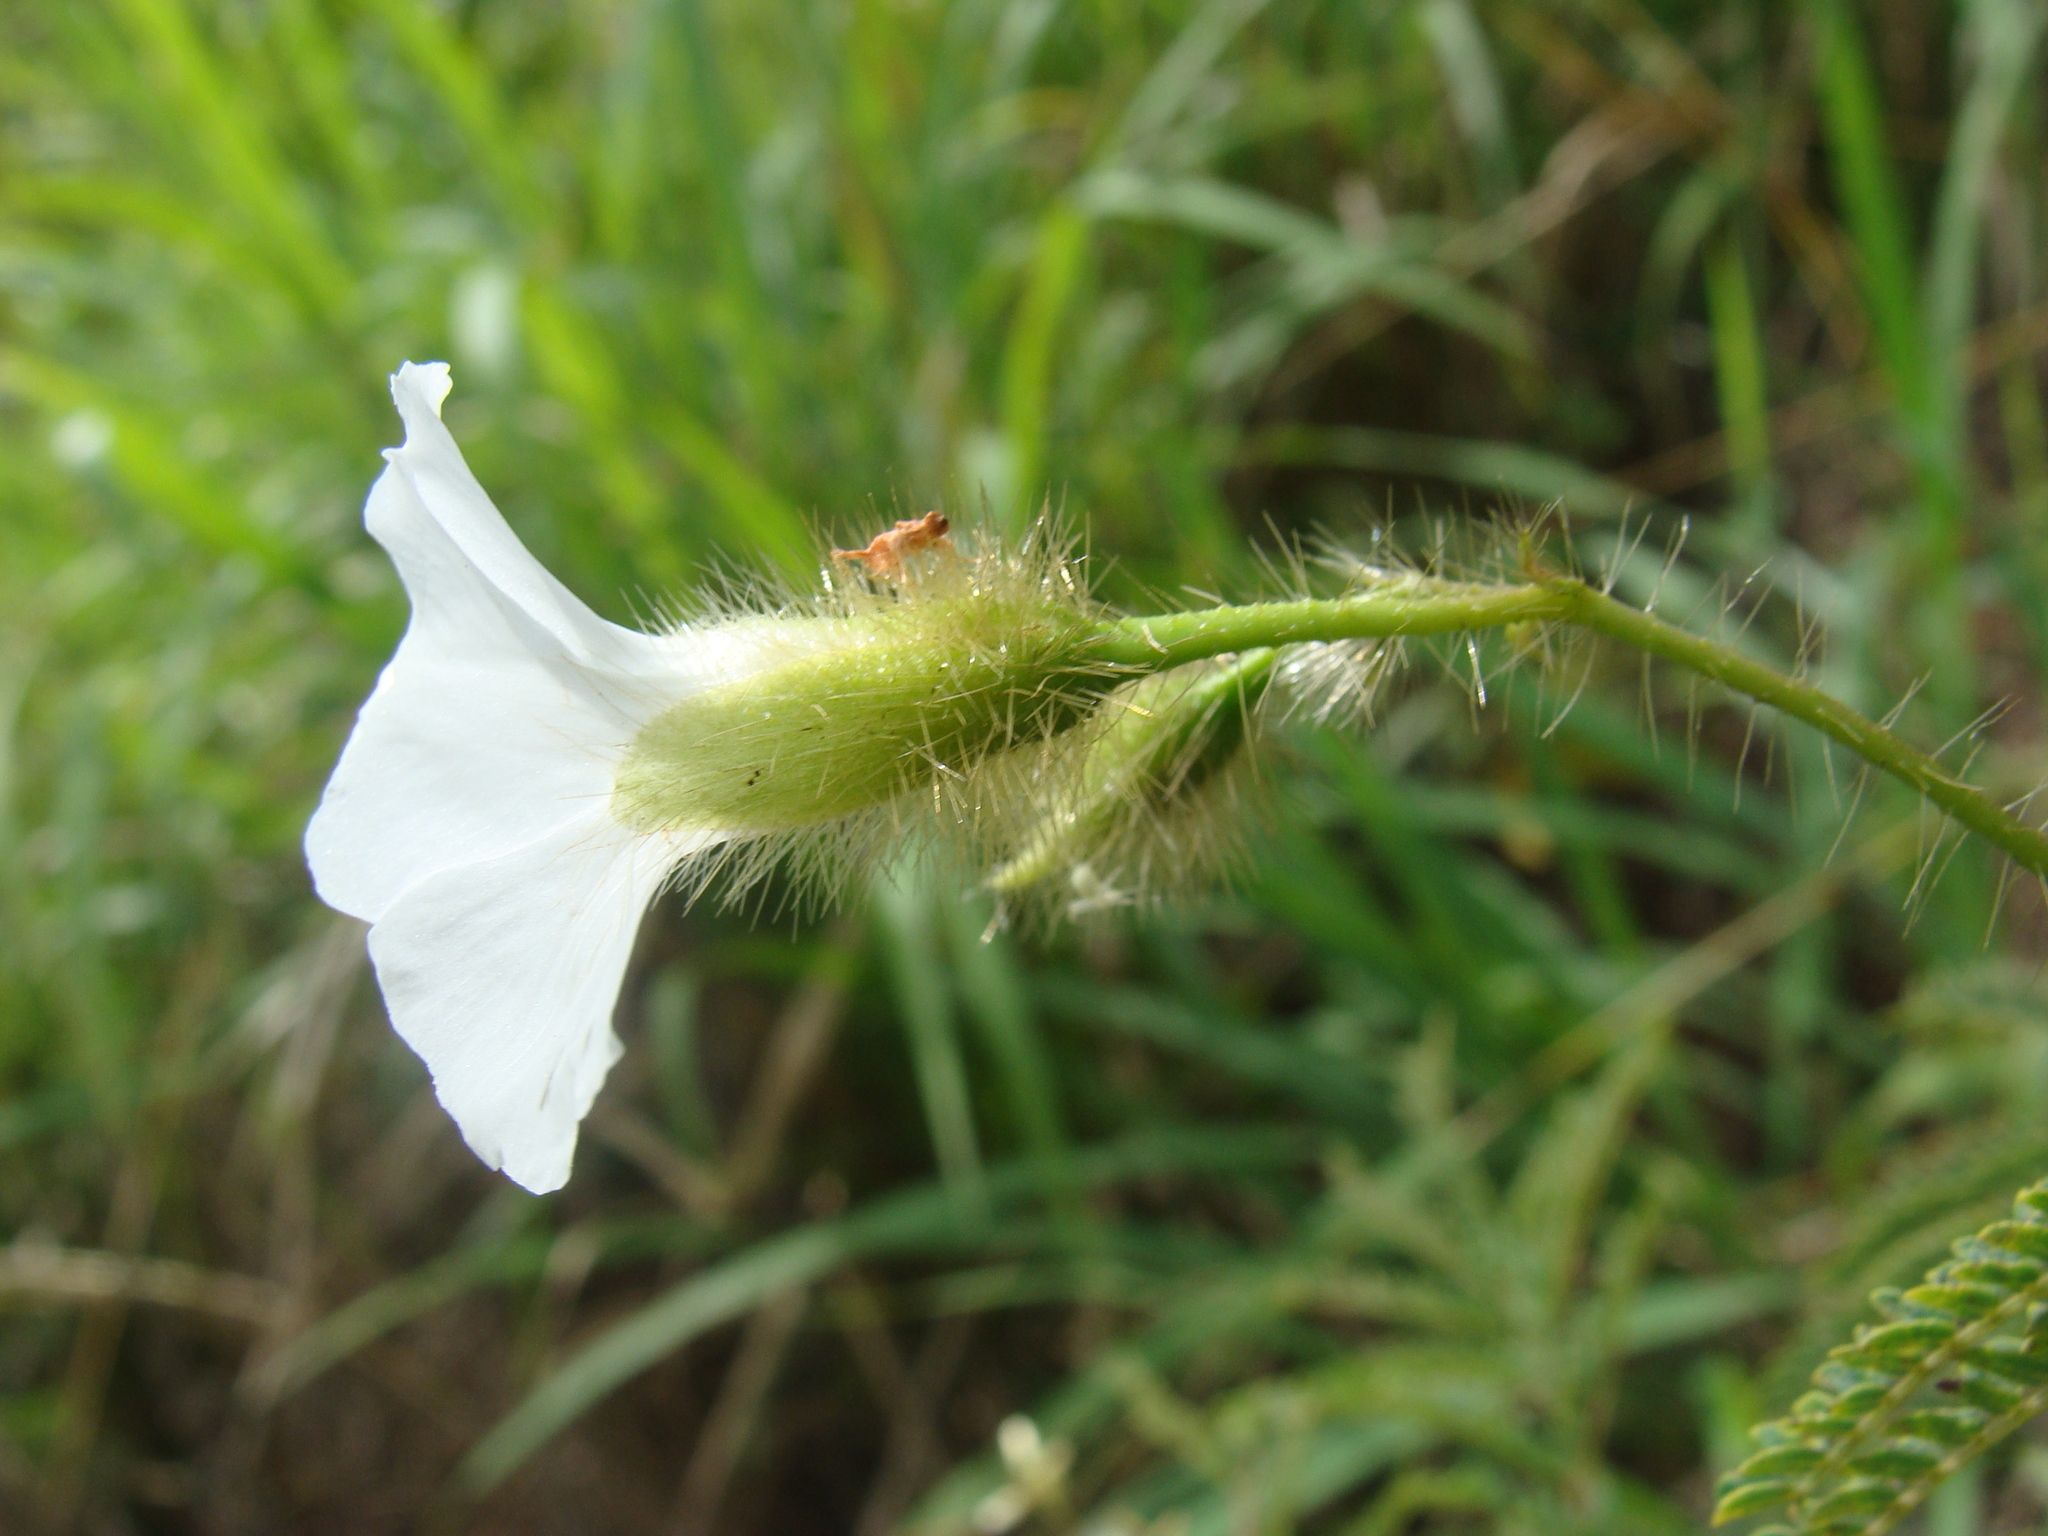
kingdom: Plantae
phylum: Tracheophyta
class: Magnoliopsida
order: Solanales
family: Convolvulaceae
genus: Distimake
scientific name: Distimake aegyptius
